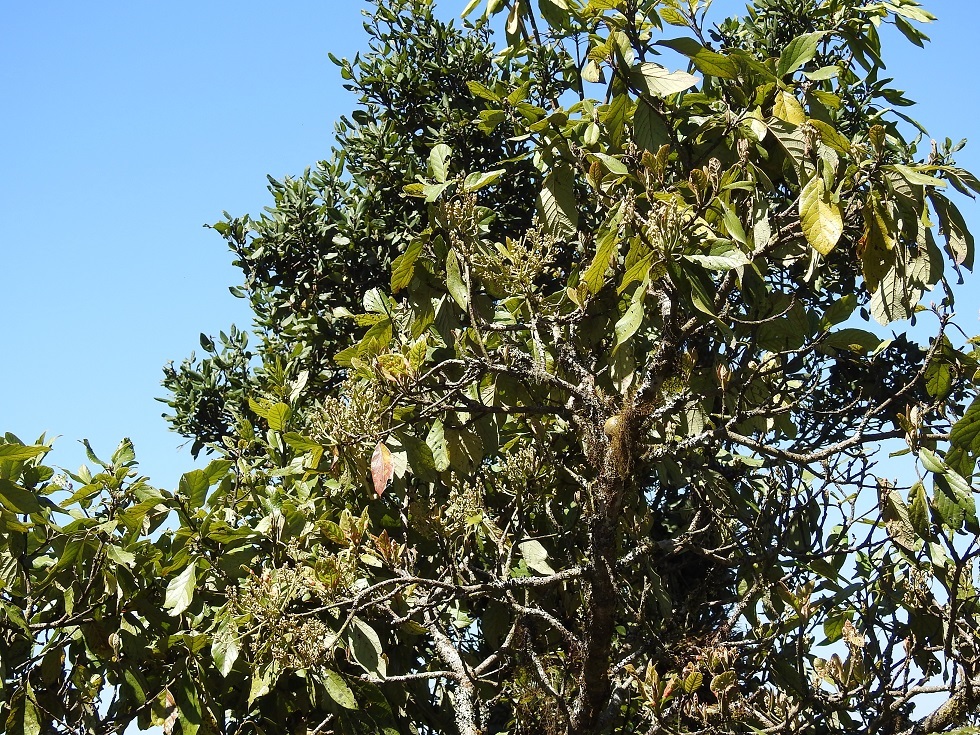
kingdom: Plantae
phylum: Tracheophyta
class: Magnoliopsida
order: Laurales
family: Lauraceae
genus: Persea
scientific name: Persea americana
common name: Avocado
